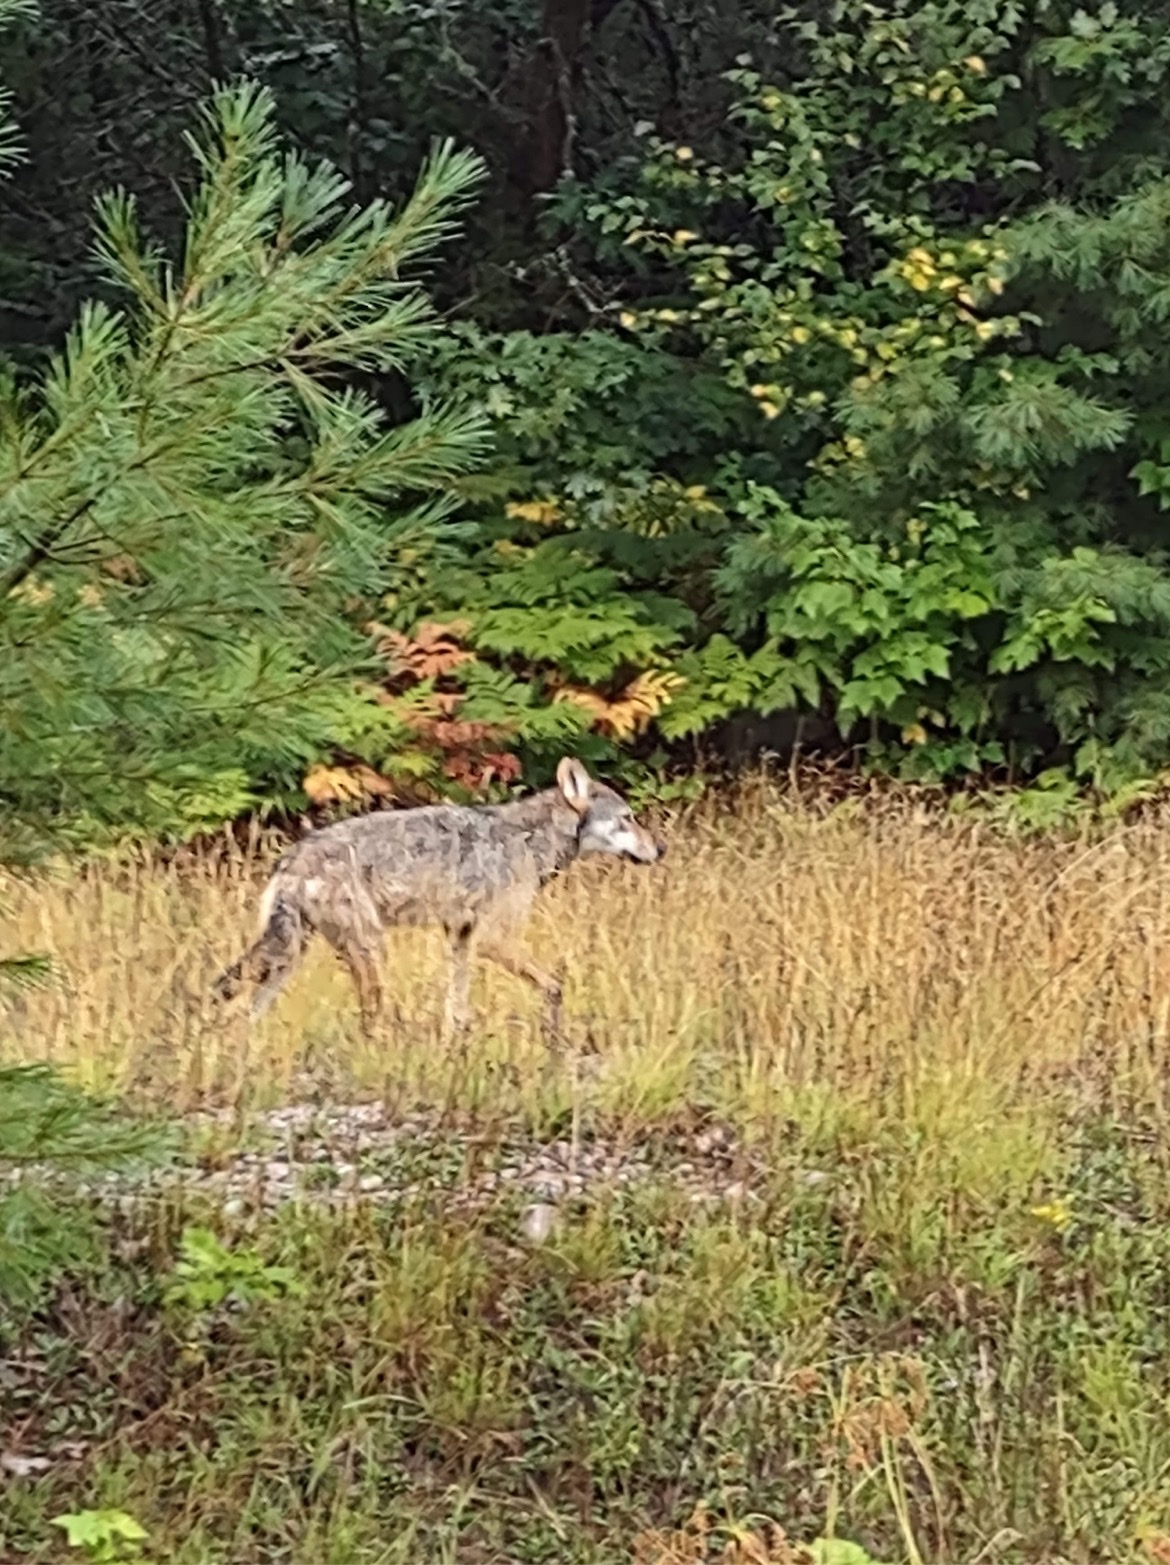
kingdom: Animalia
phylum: Chordata
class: Mammalia
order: Carnivora
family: Canidae
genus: Canis
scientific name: Canis lycaon
